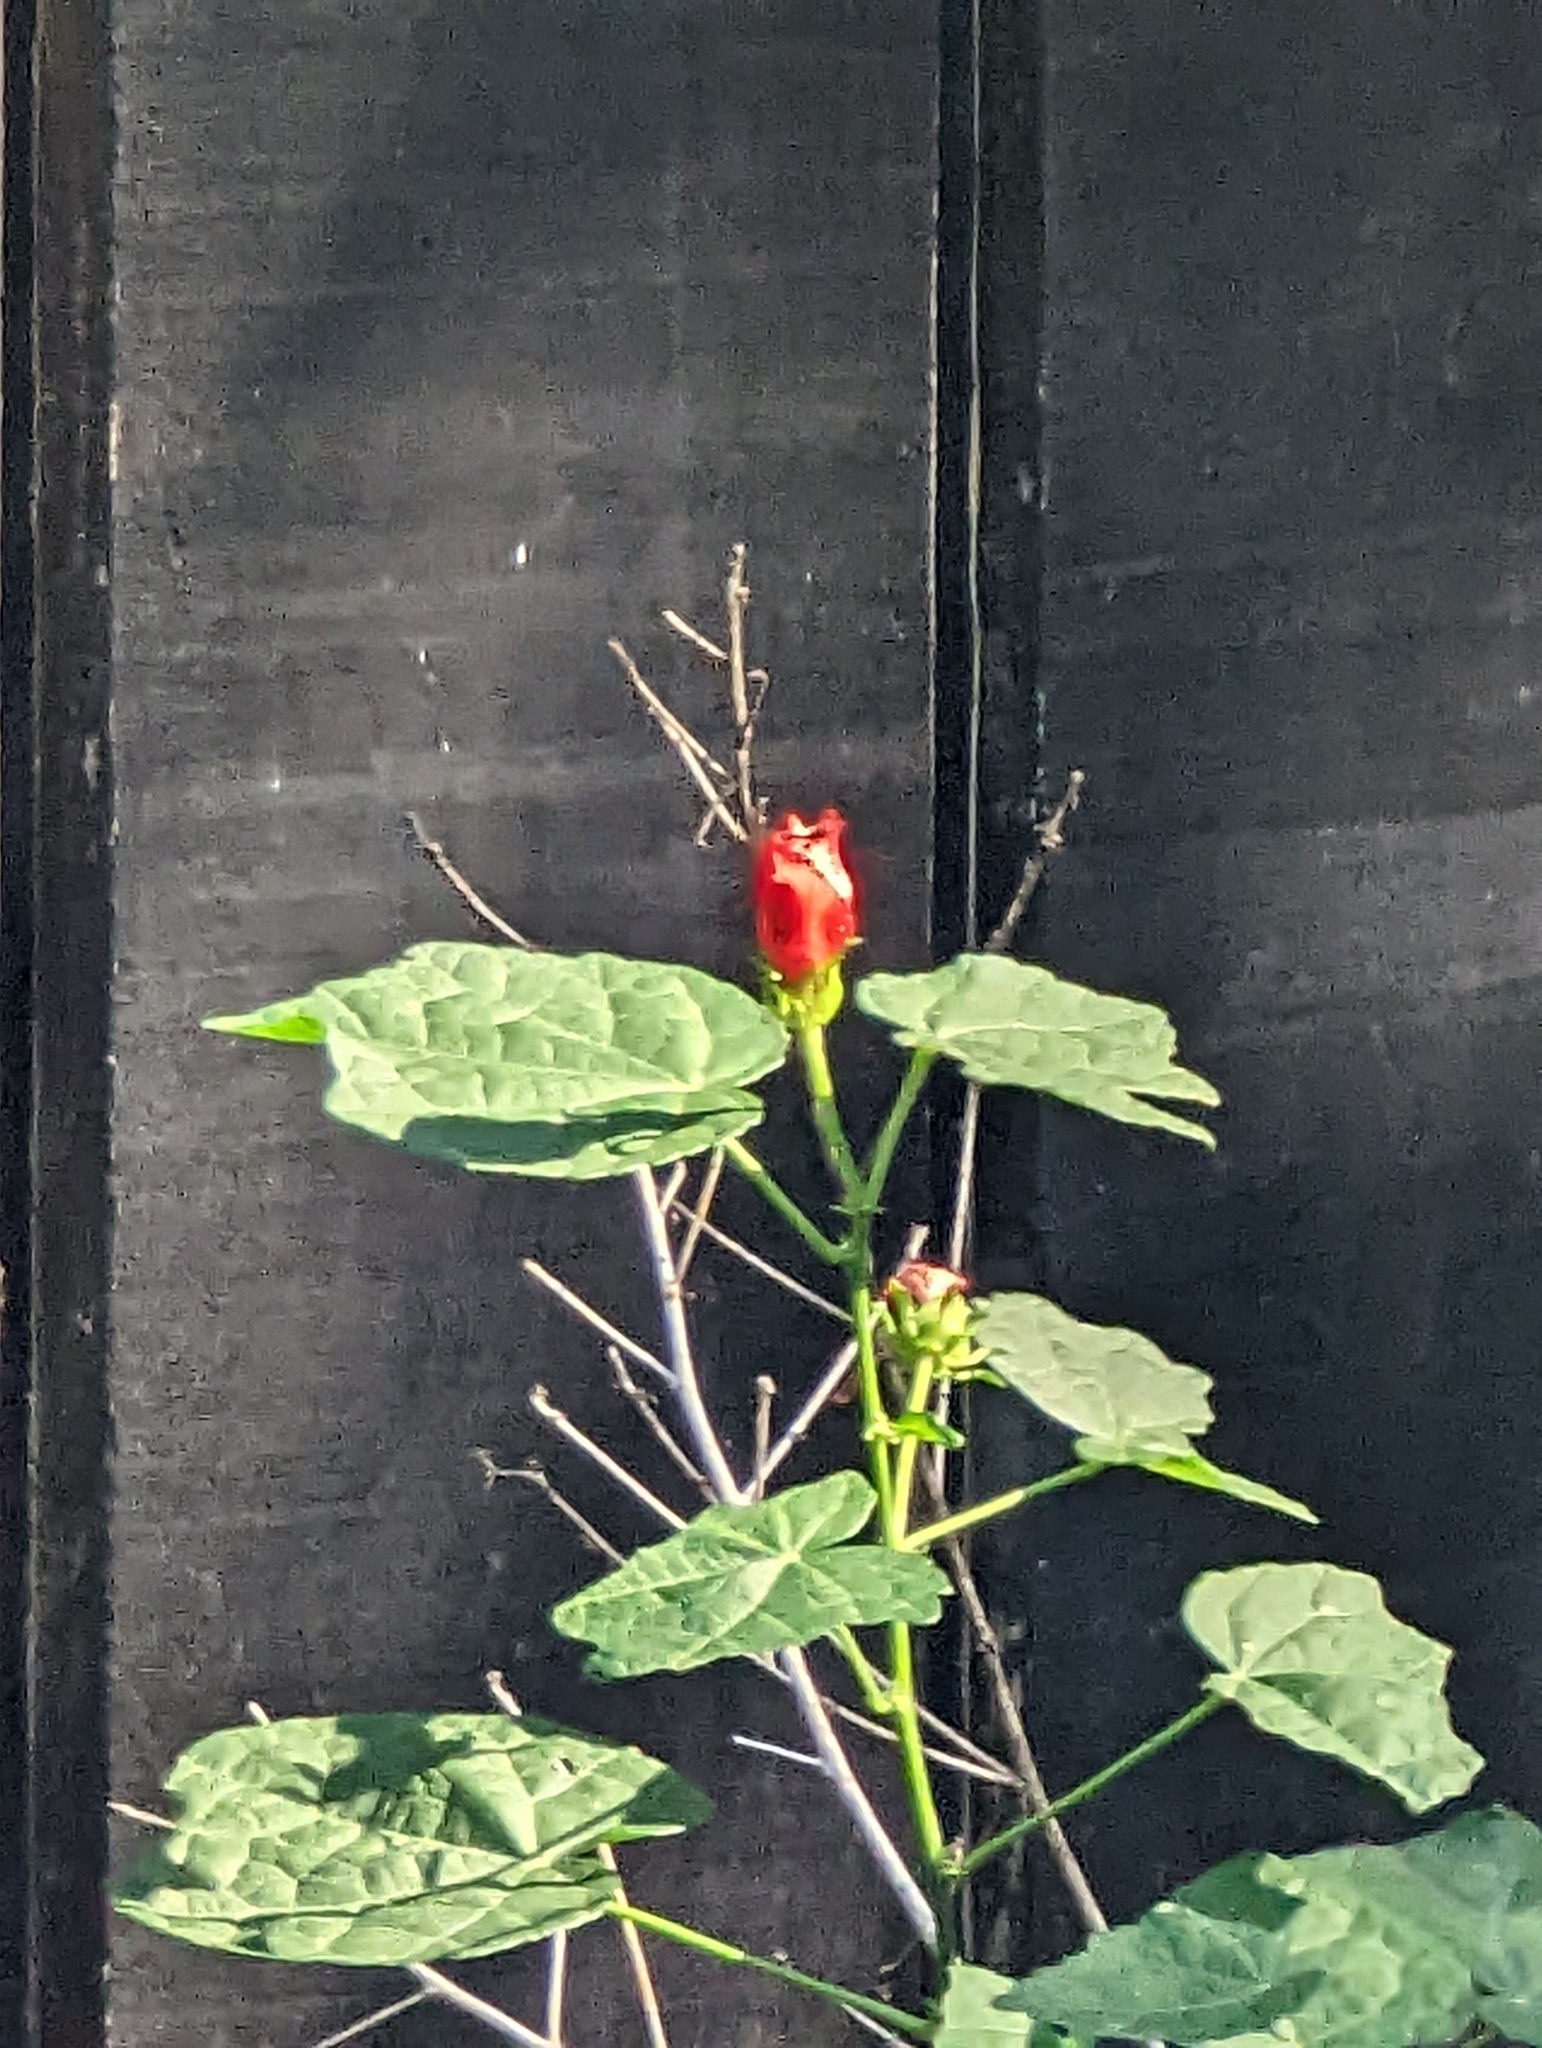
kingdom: Plantae
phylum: Tracheophyta
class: Magnoliopsida
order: Malvales
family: Malvaceae
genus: Malvaviscus
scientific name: Malvaviscus arboreus
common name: Wax mallow
